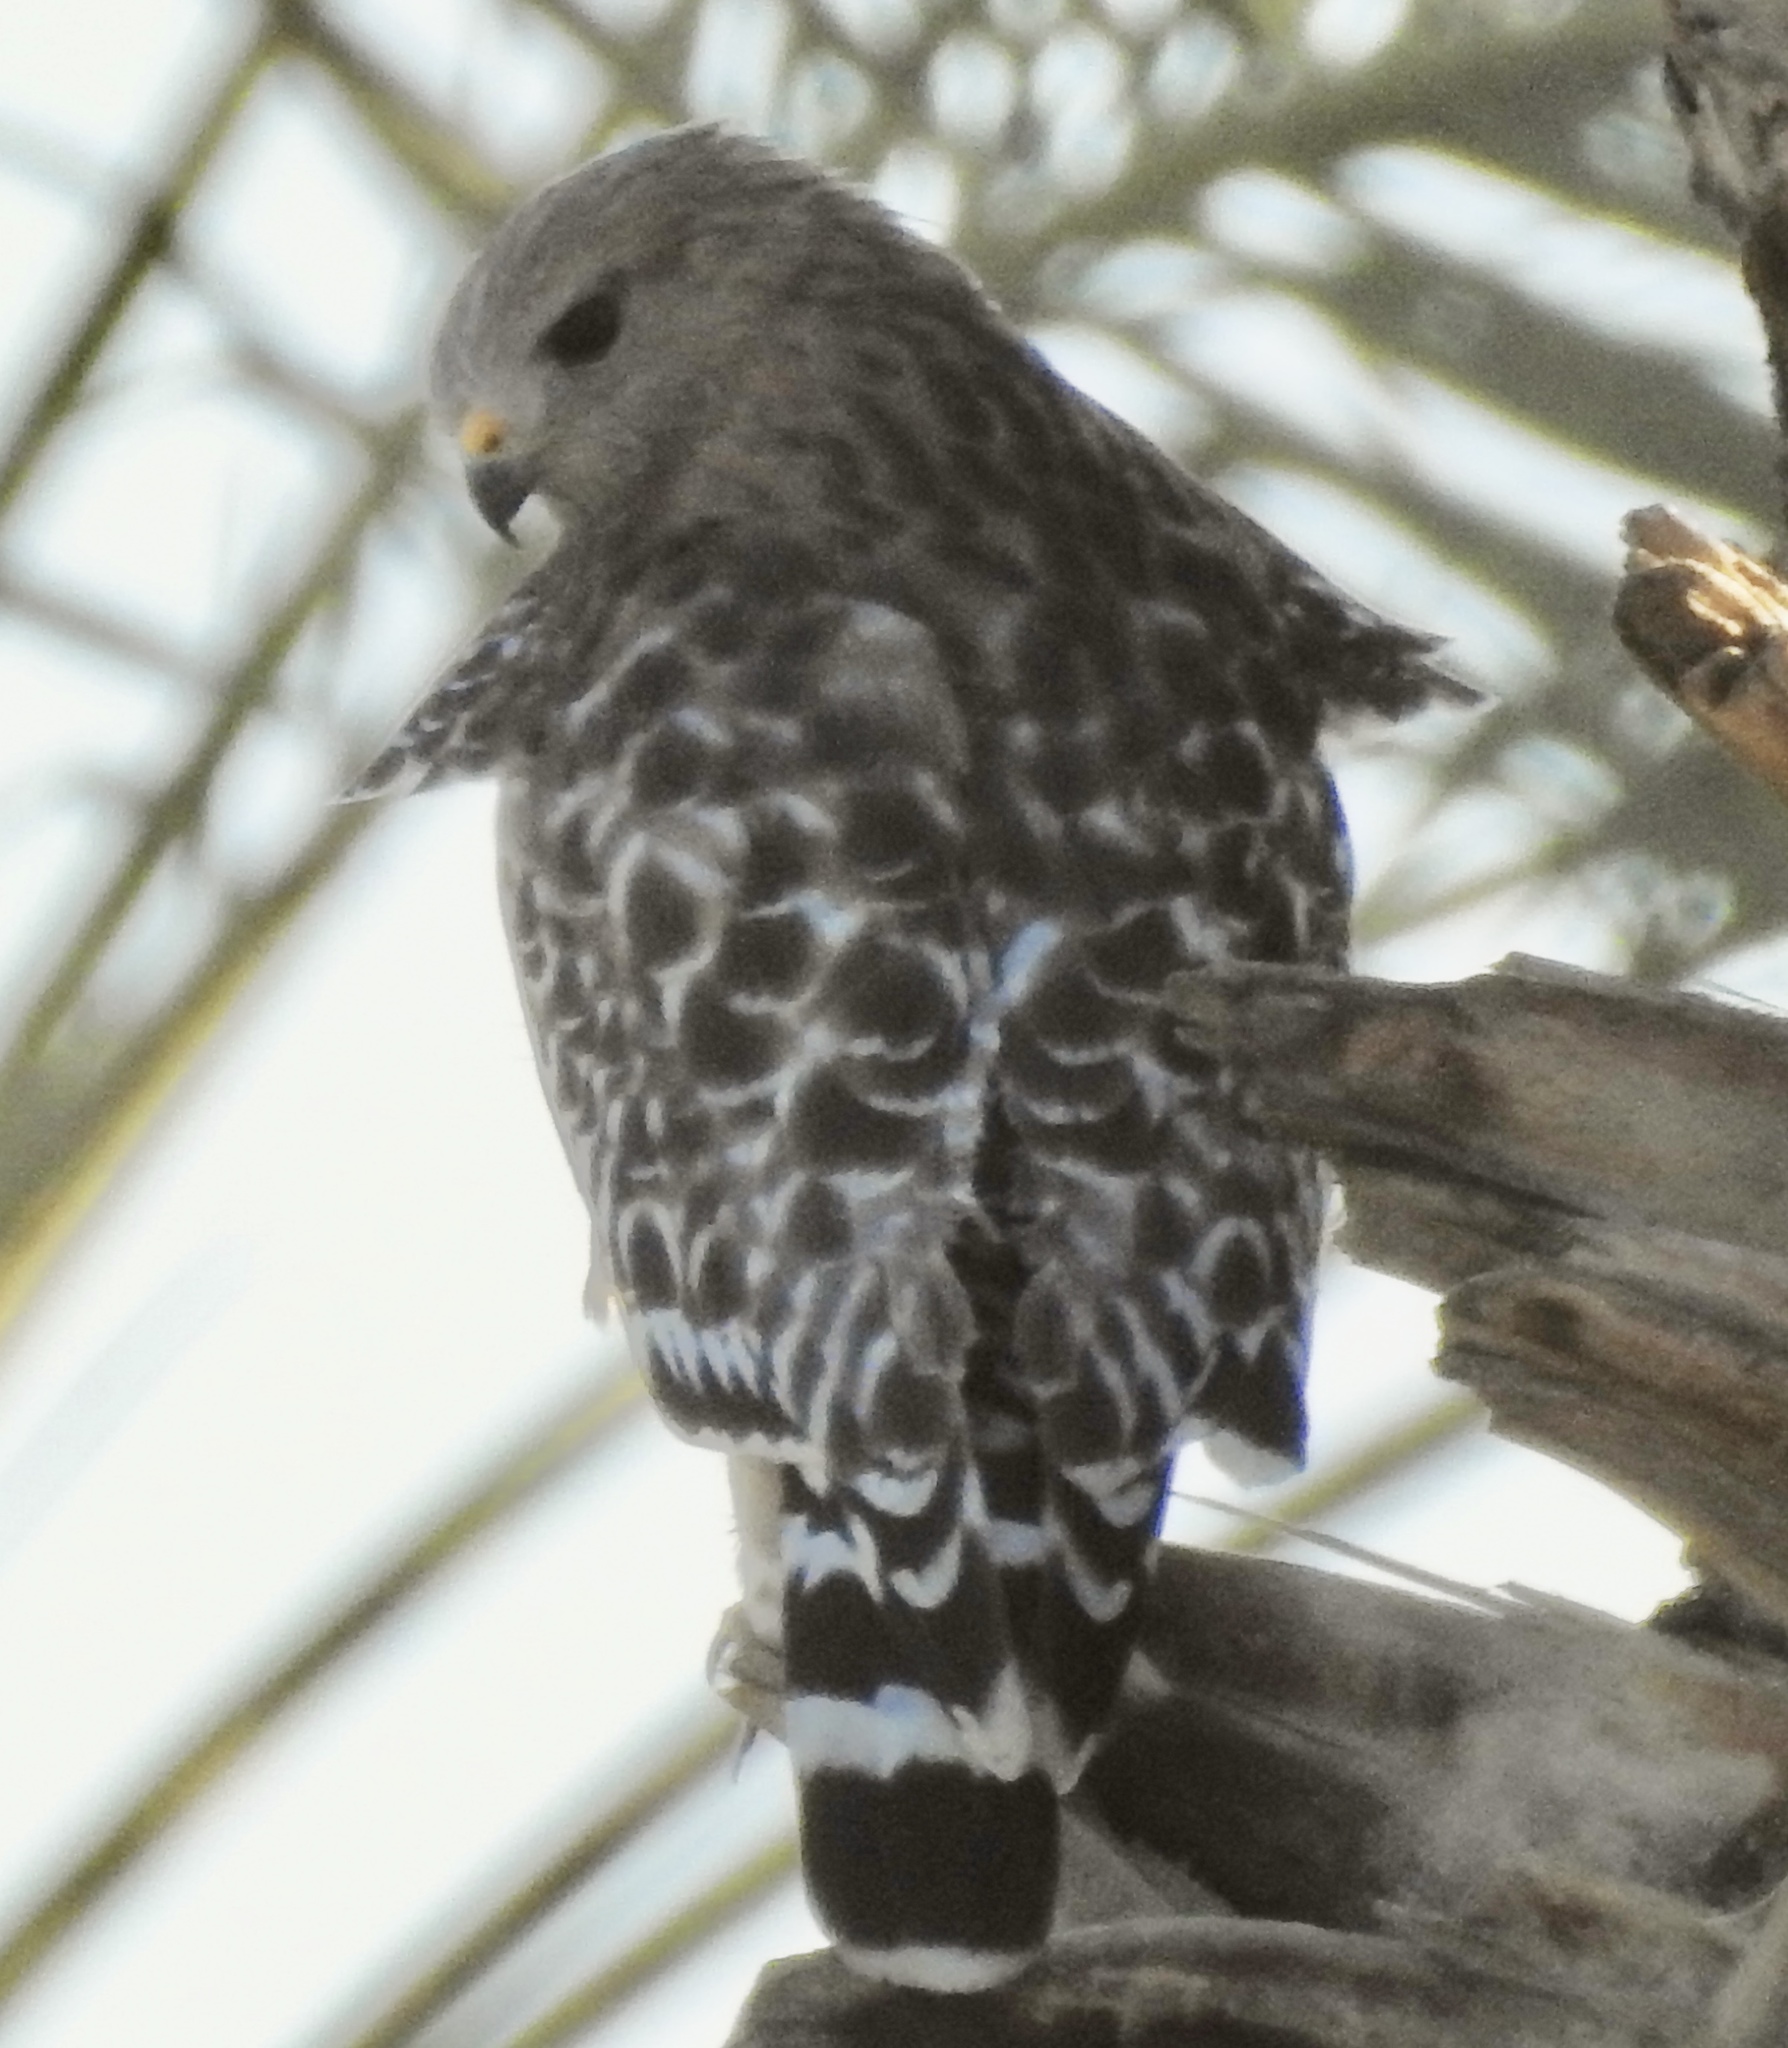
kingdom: Animalia
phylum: Chordata
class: Aves
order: Accipitriformes
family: Accipitridae
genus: Buteo
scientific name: Buteo lineatus
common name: Red-shouldered hawk
